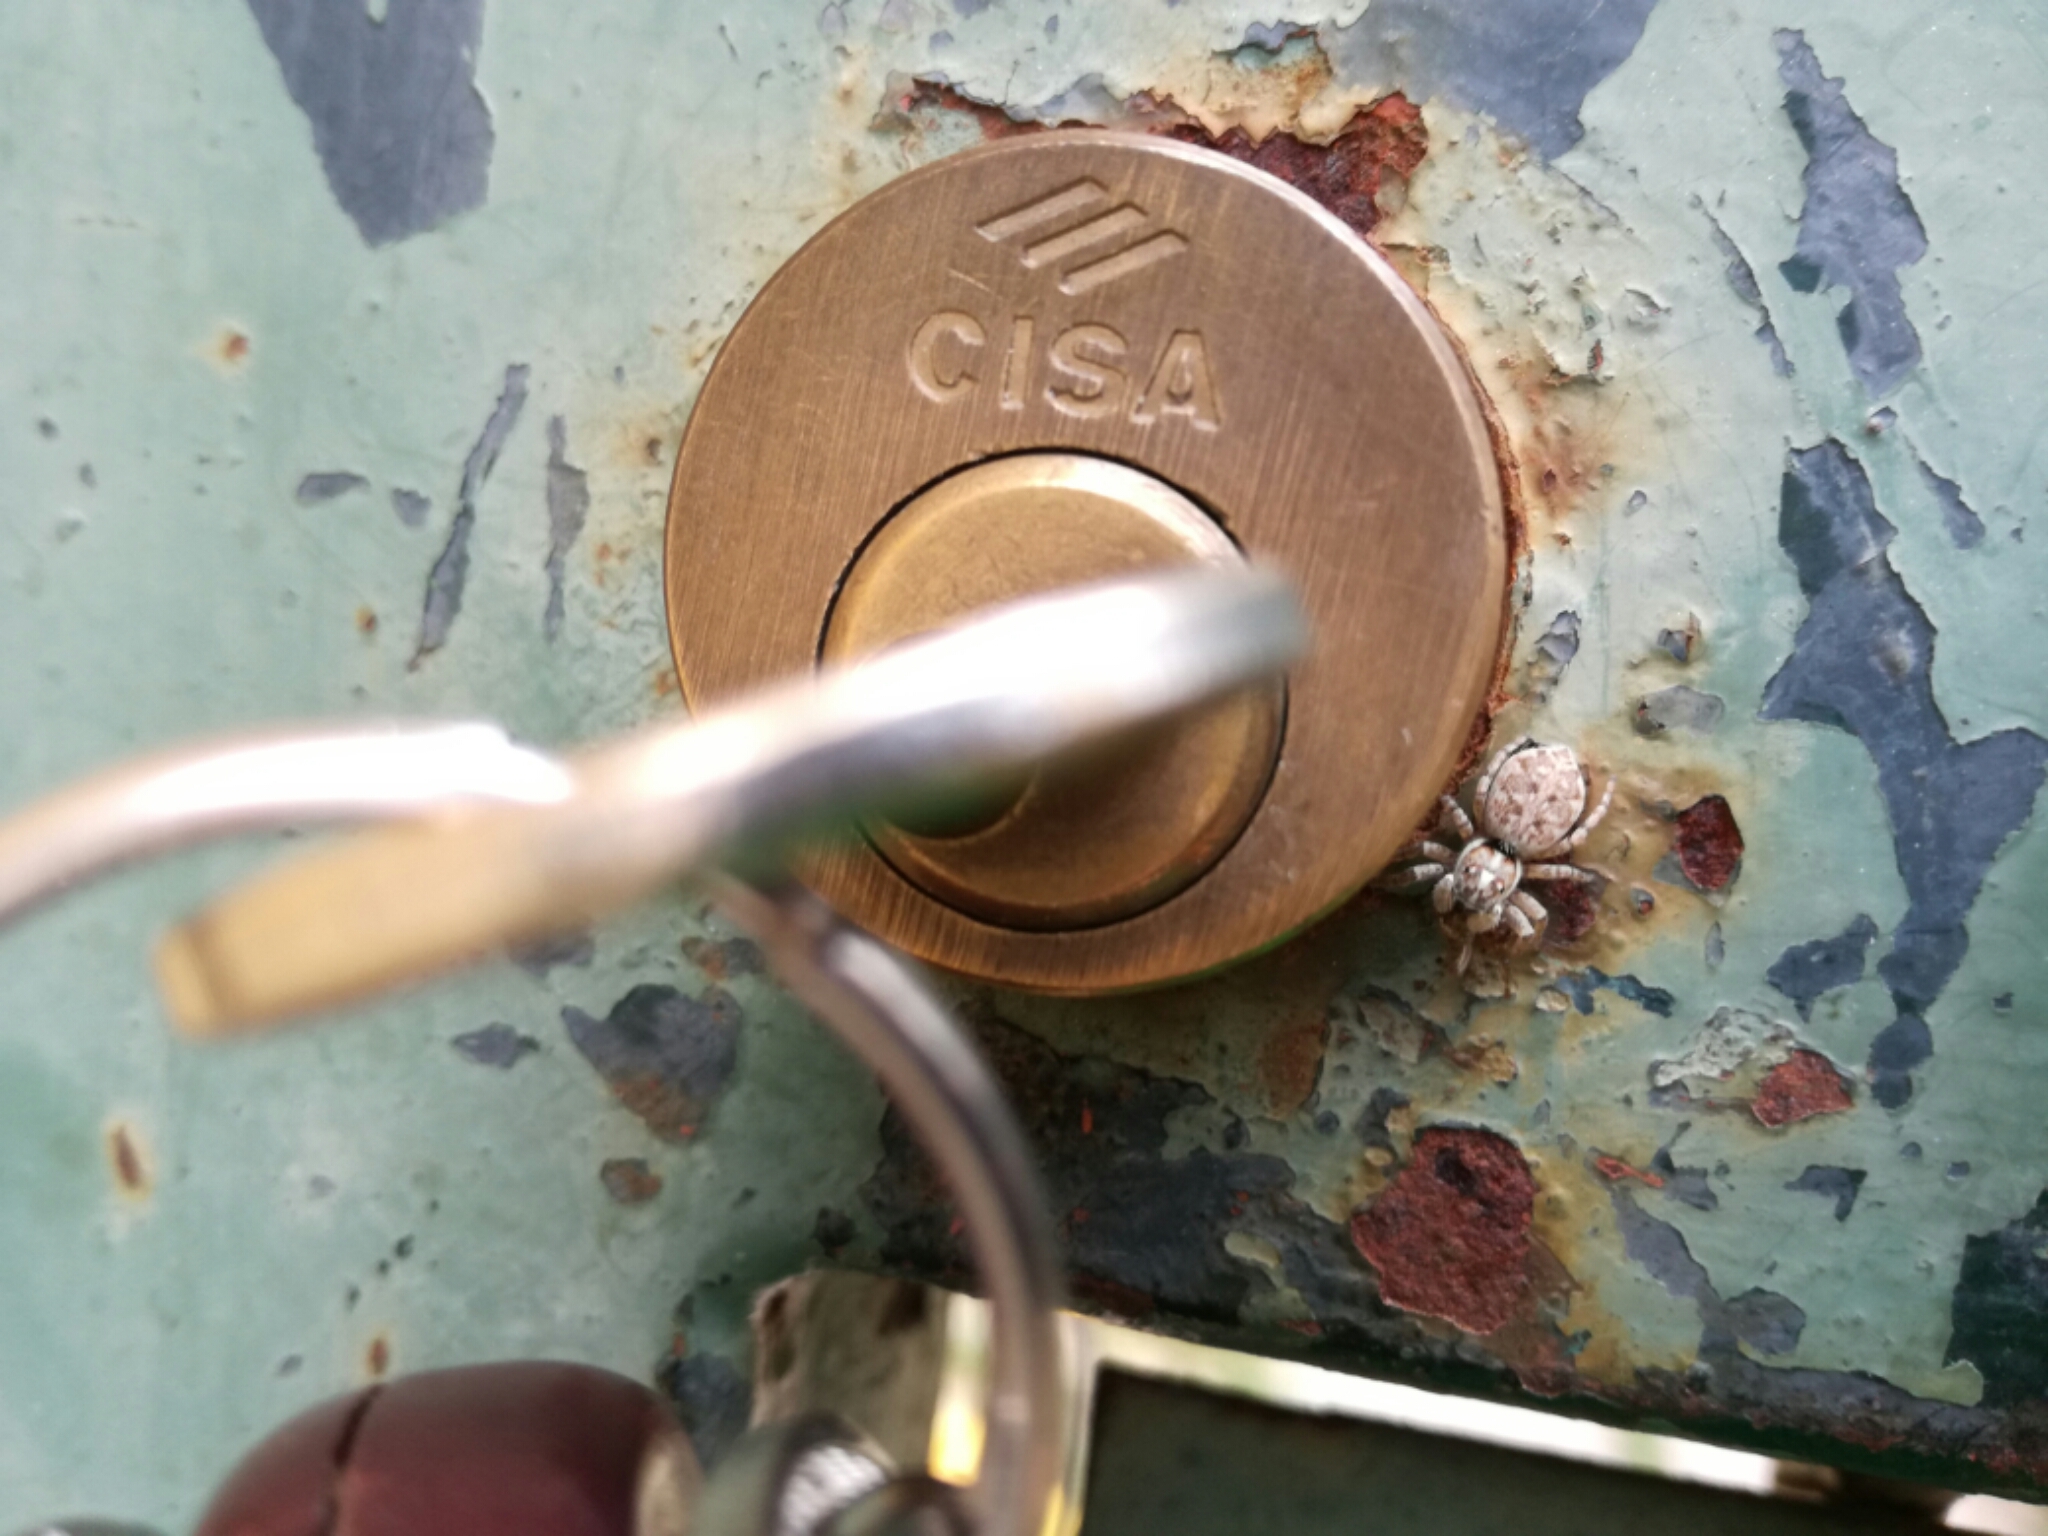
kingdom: Animalia
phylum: Arthropoda
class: Arachnida
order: Araneae
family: Salticidae
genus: Menemerus
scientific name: Menemerus semilimbatus
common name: Jumping spider
